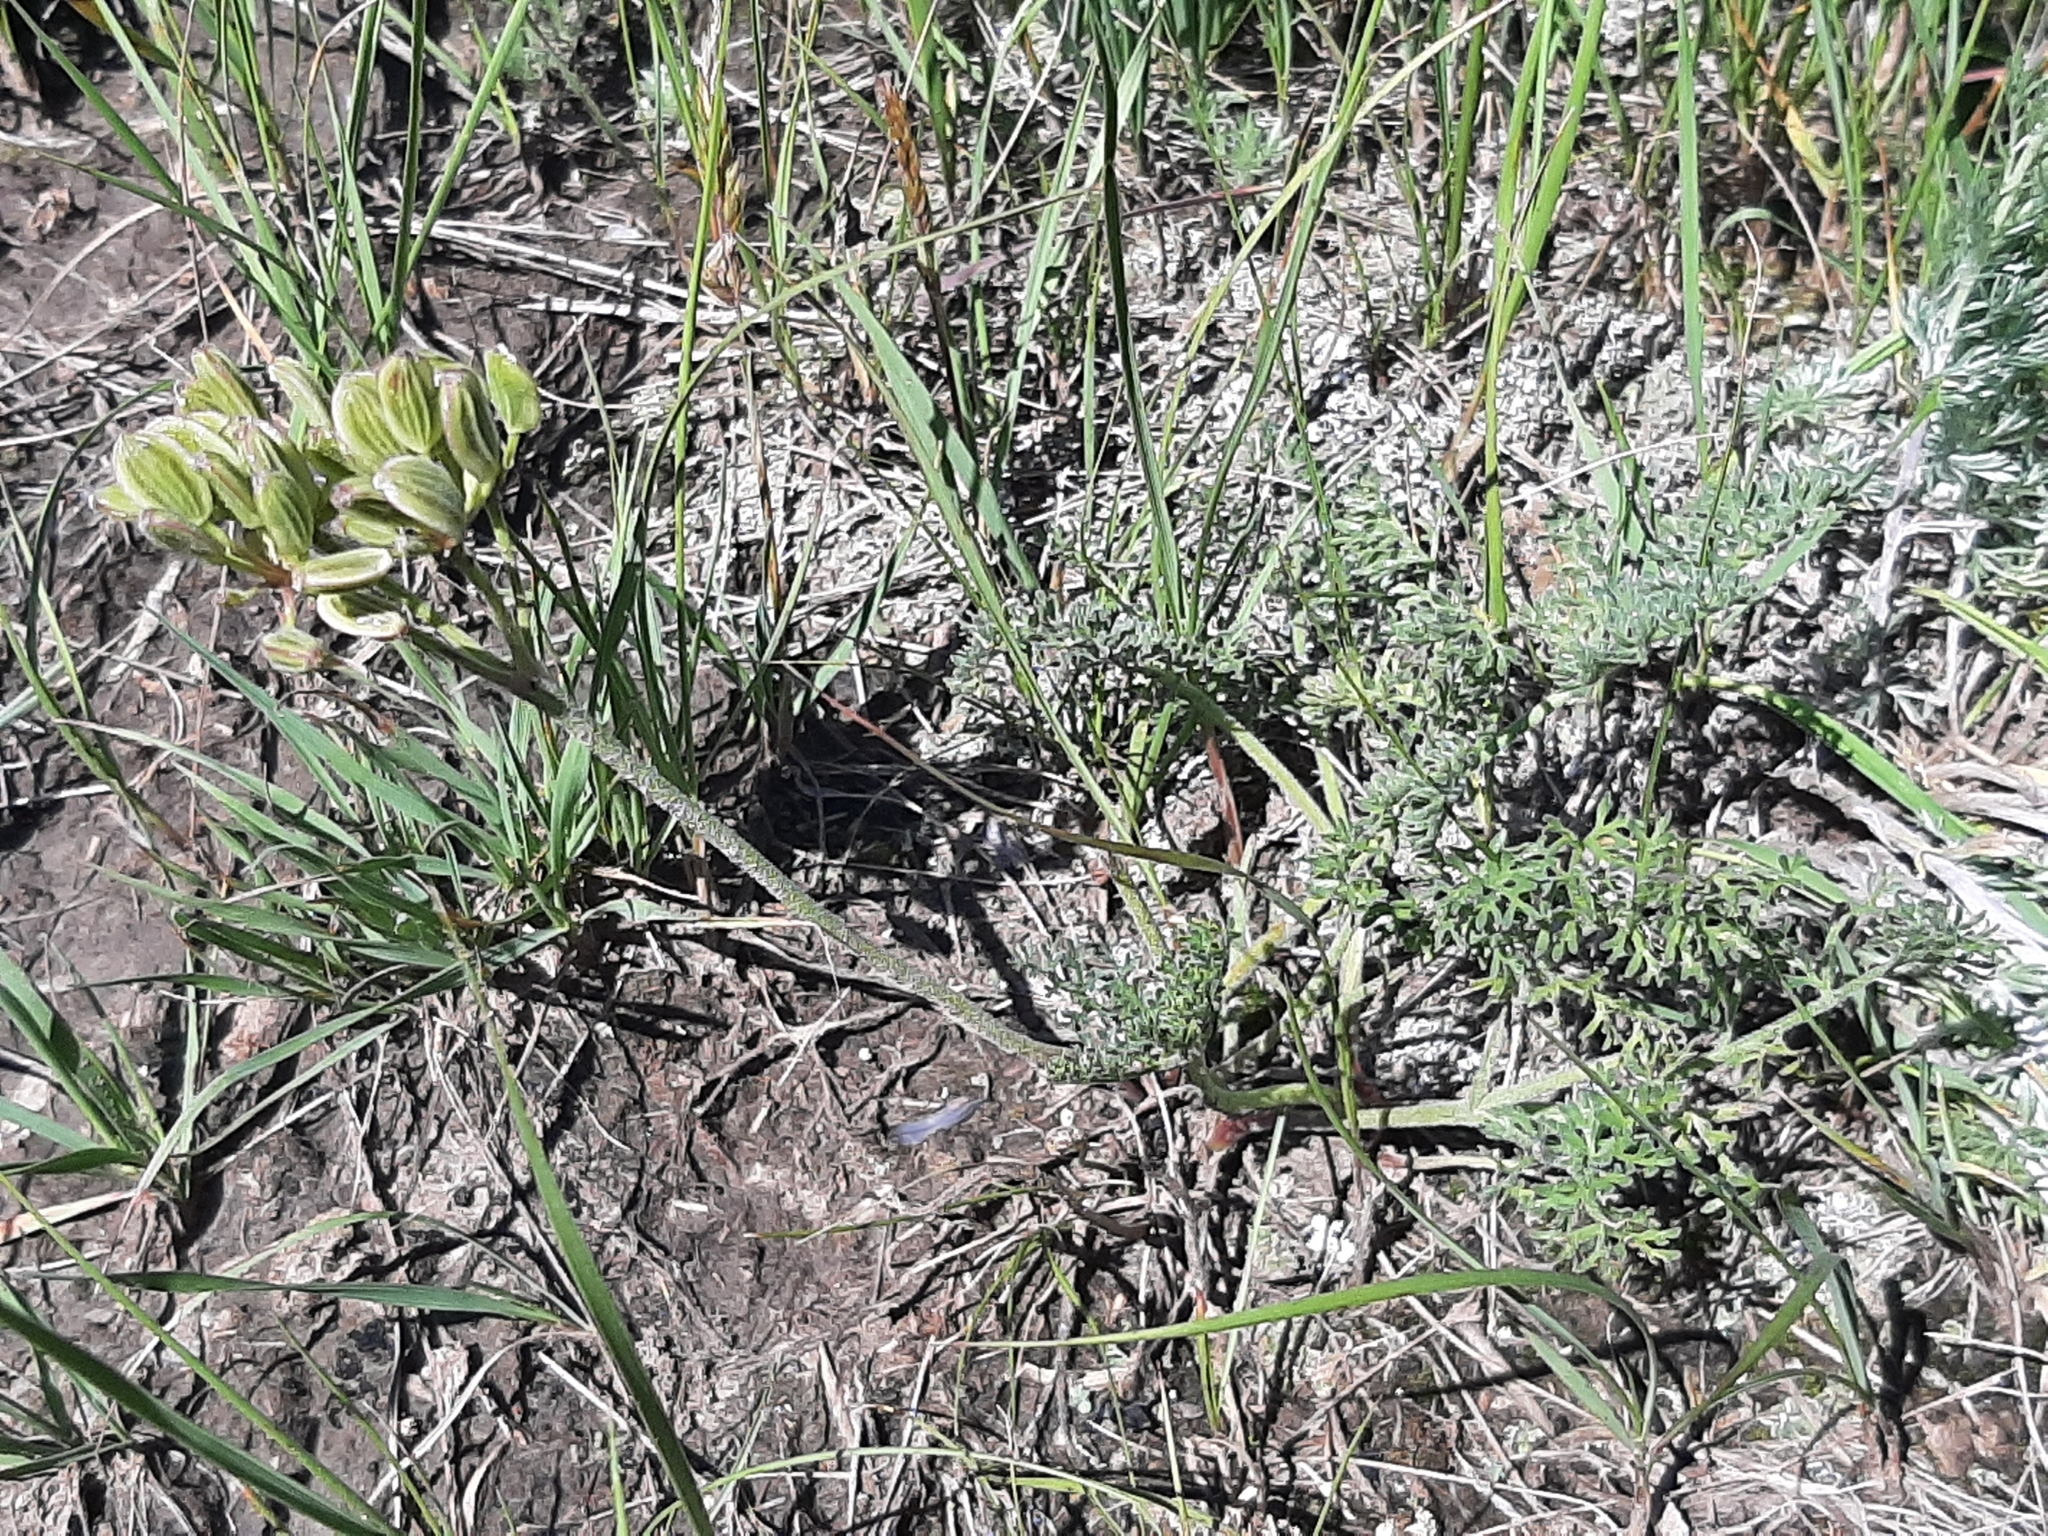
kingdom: Plantae
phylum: Tracheophyta
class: Magnoliopsida
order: Apiales
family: Apiaceae
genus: Lomatium
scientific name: Lomatium foeniculaceum
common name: Desert-parsley
